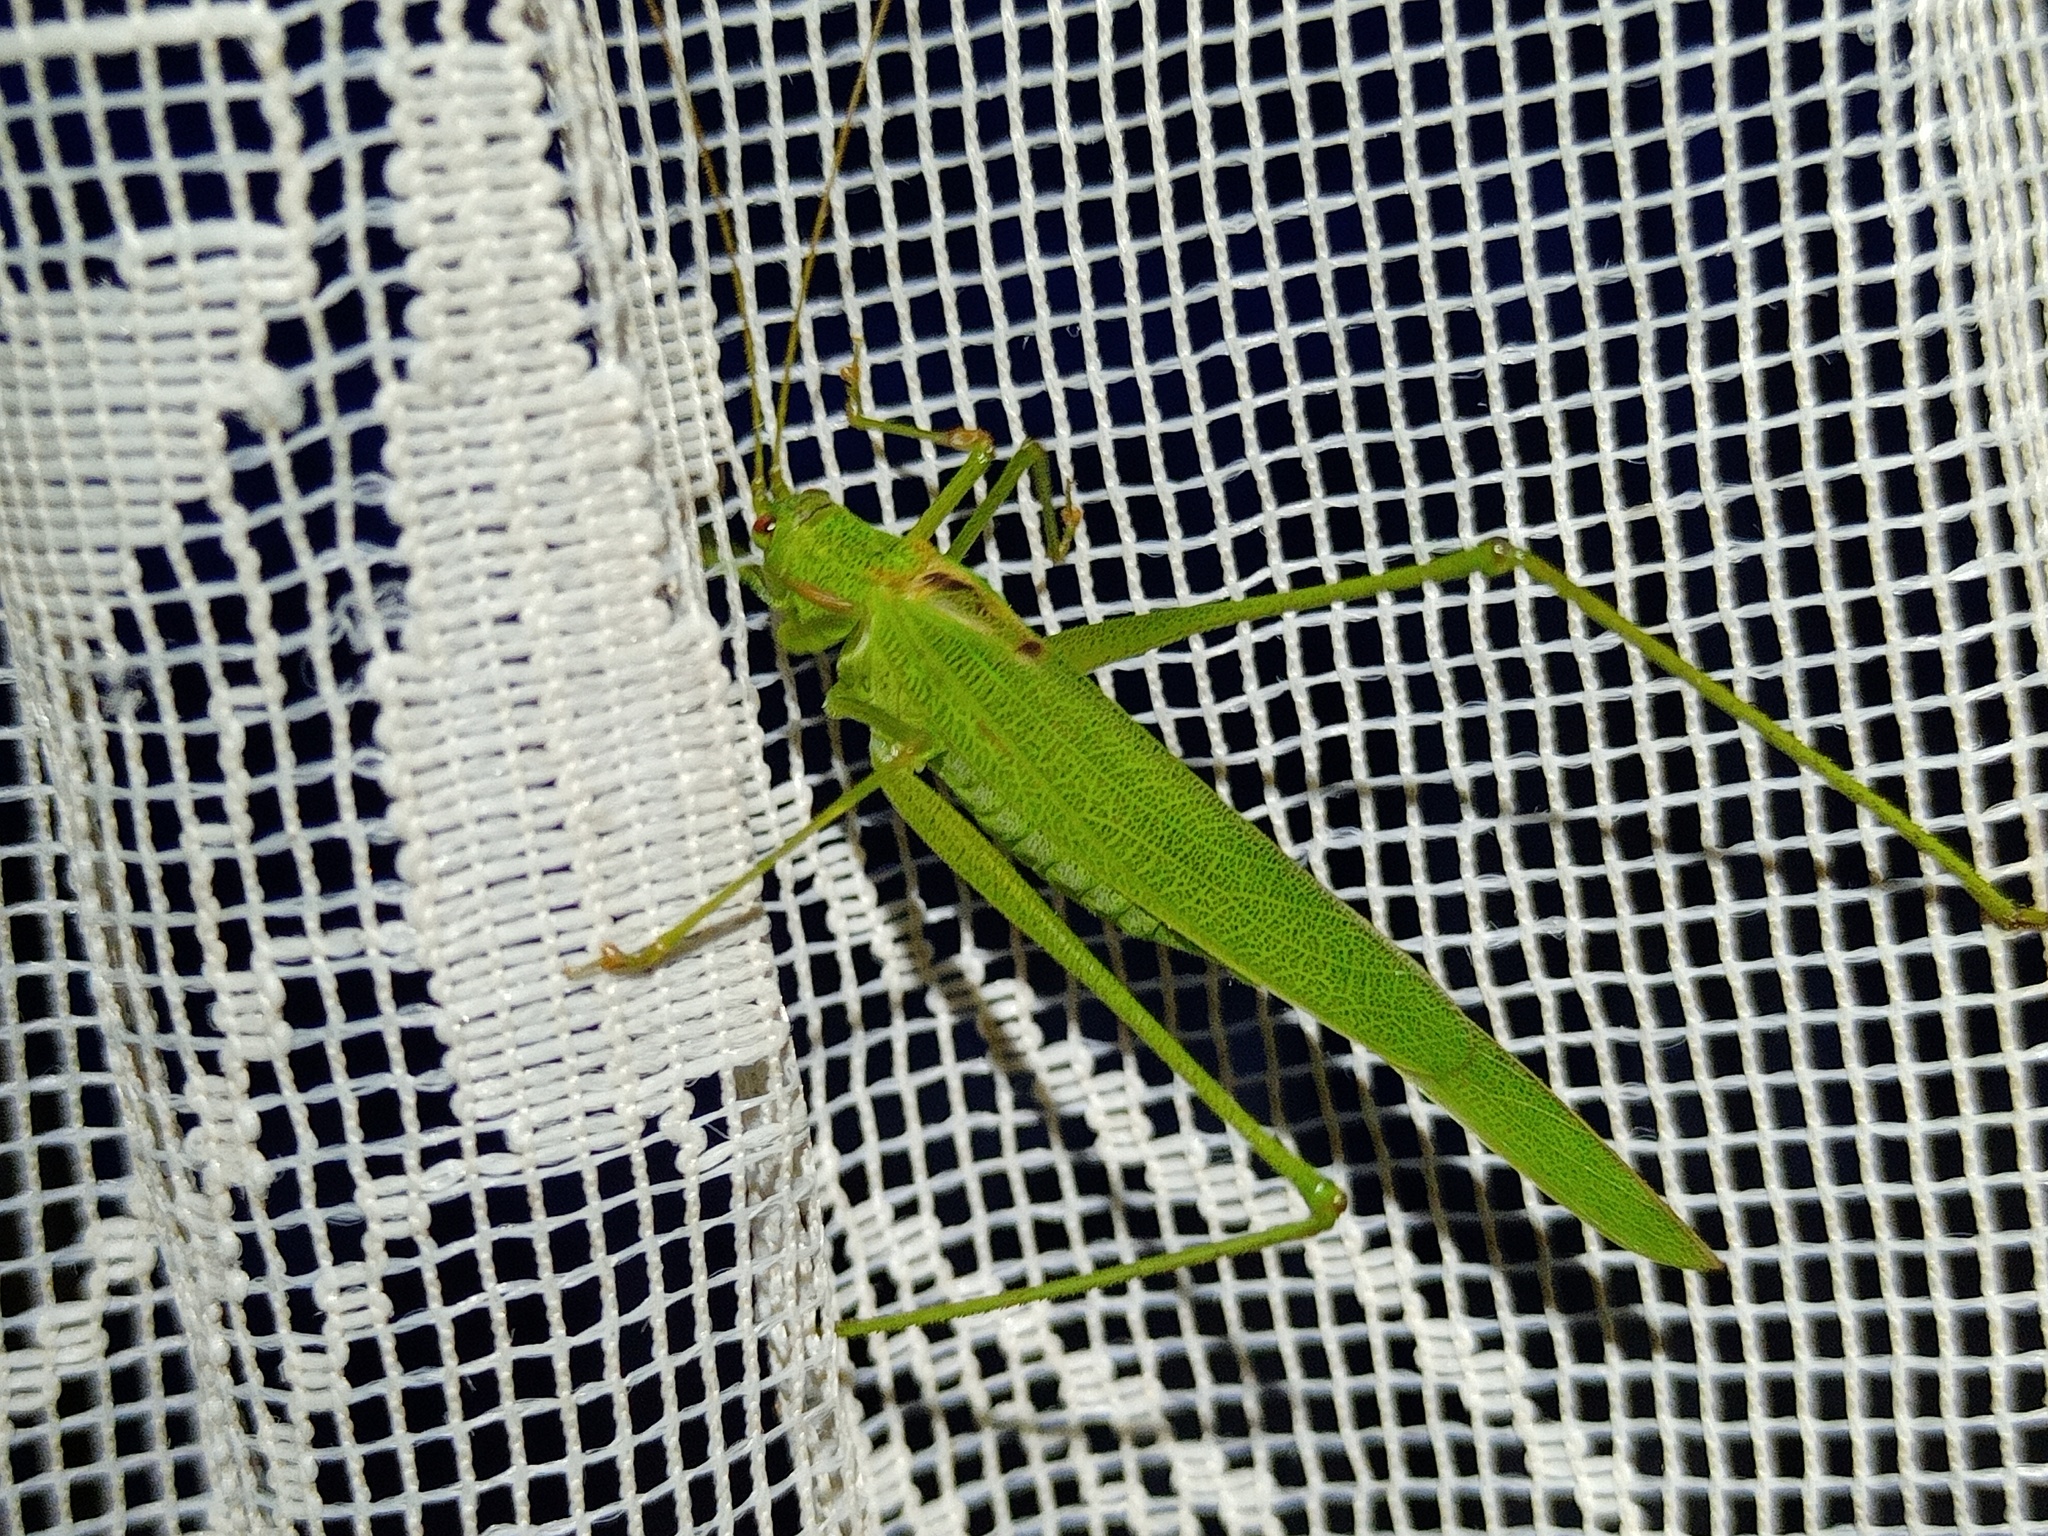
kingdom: Animalia
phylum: Arthropoda
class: Insecta
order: Orthoptera
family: Tettigoniidae
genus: Phaneroptera
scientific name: Phaneroptera falcata
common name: Sickle-bearing bush-cricket
